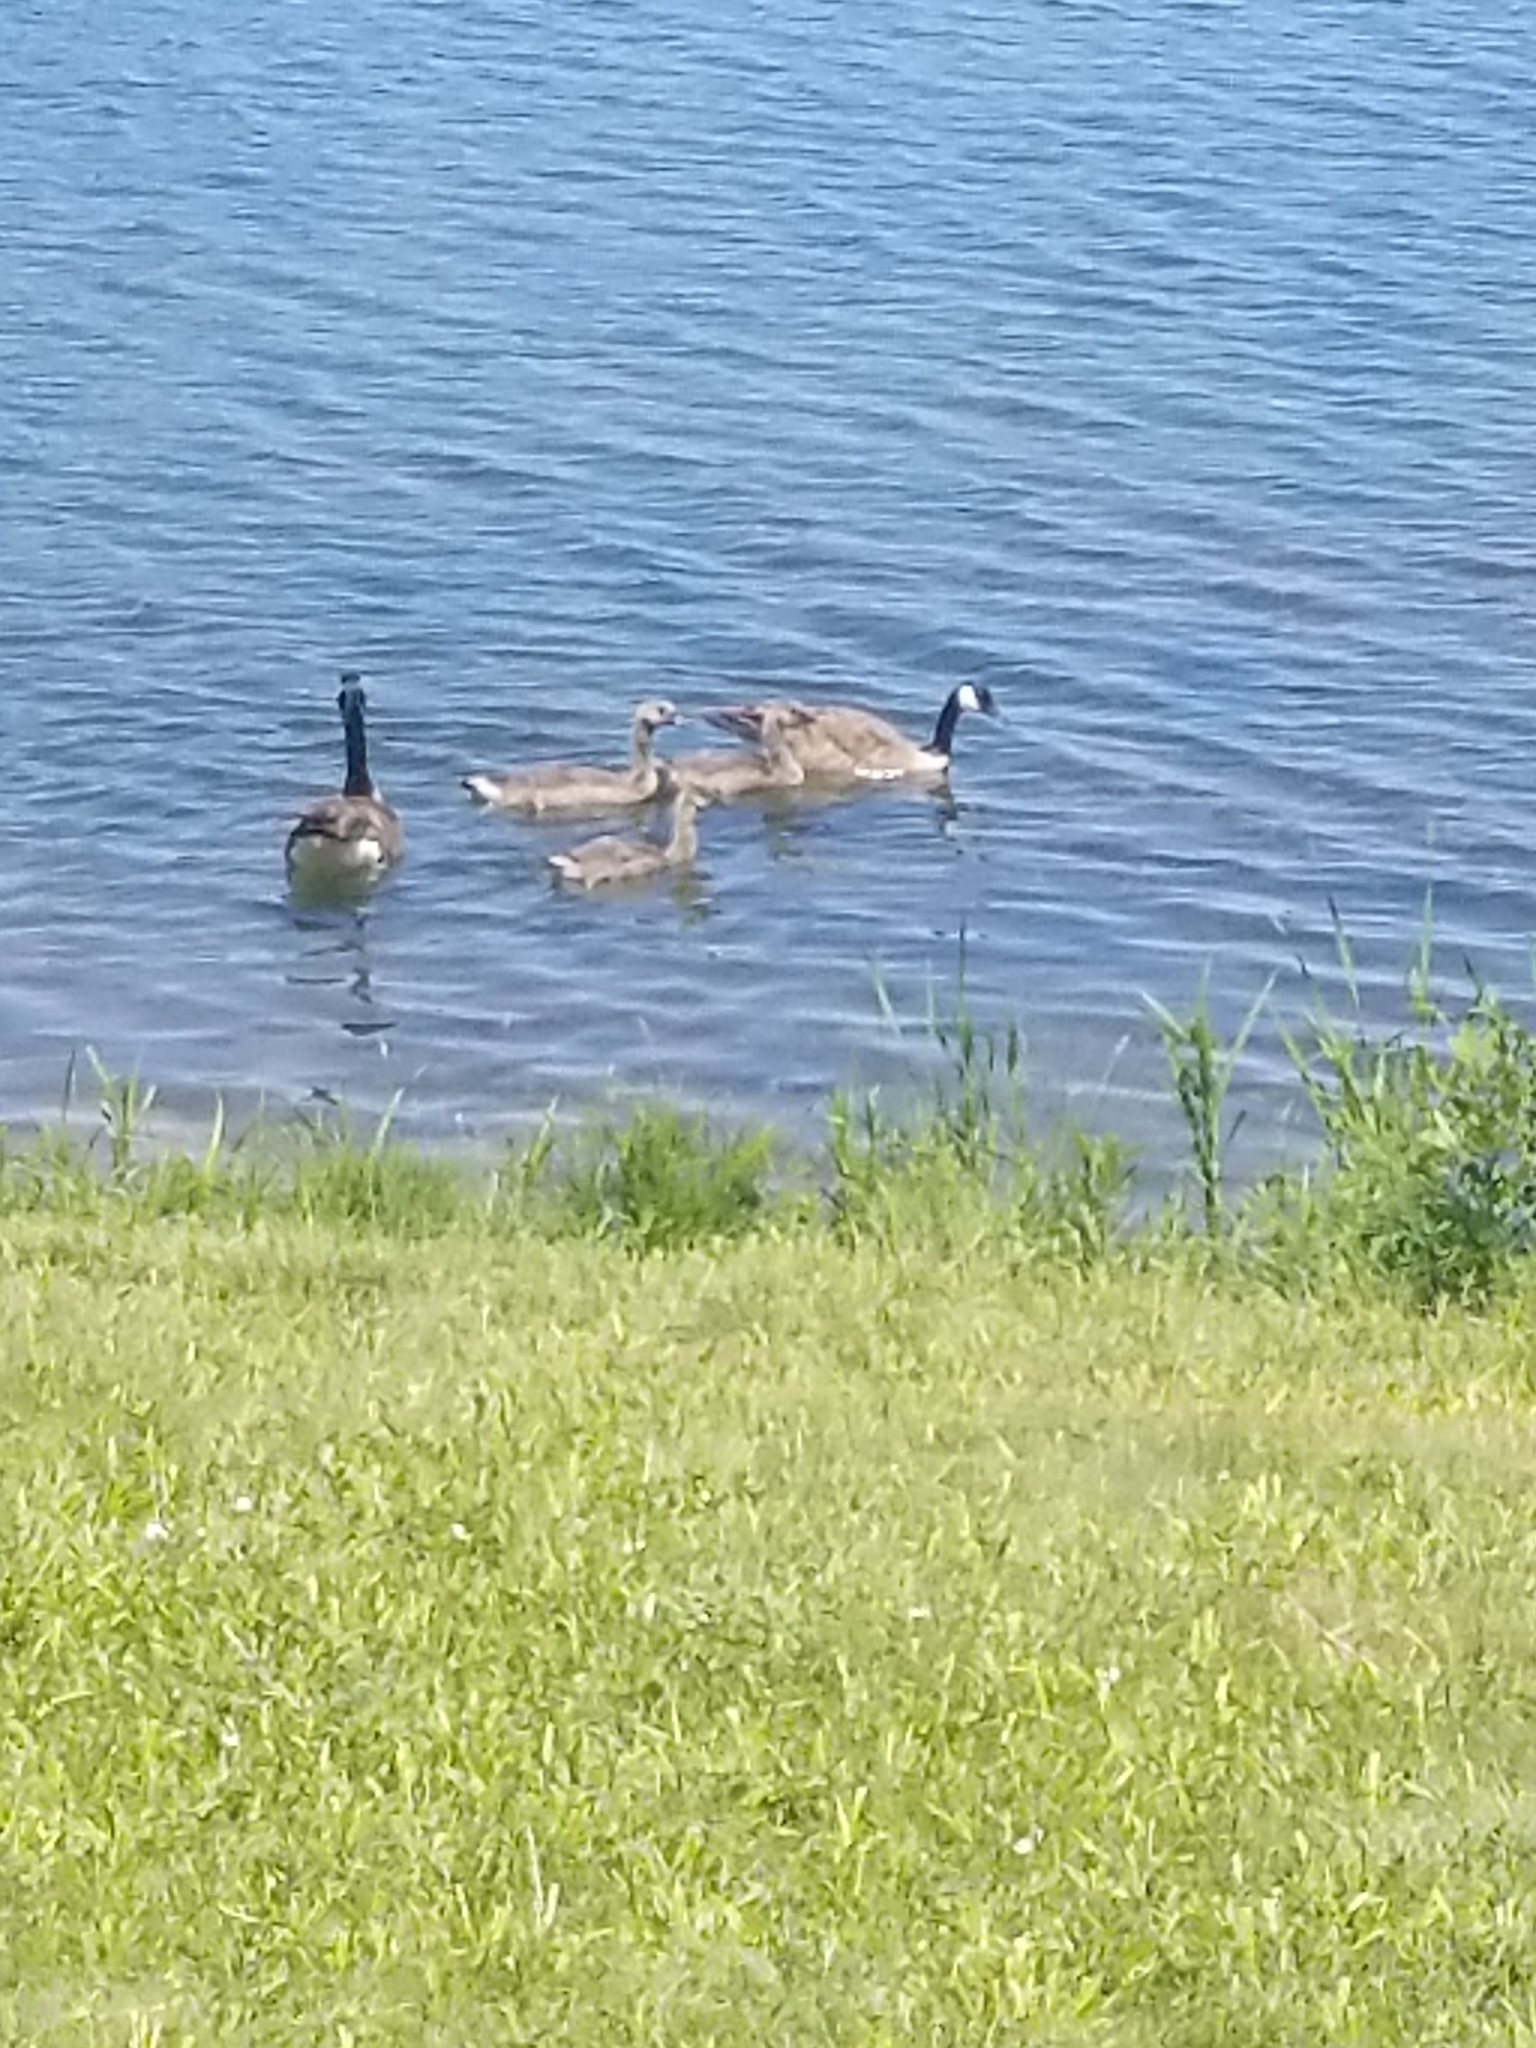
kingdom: Animalia
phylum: Chordata
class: Aves
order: Anseriformes
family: Anatidae
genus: Branta
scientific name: Branta canadensis
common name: Canada goose
